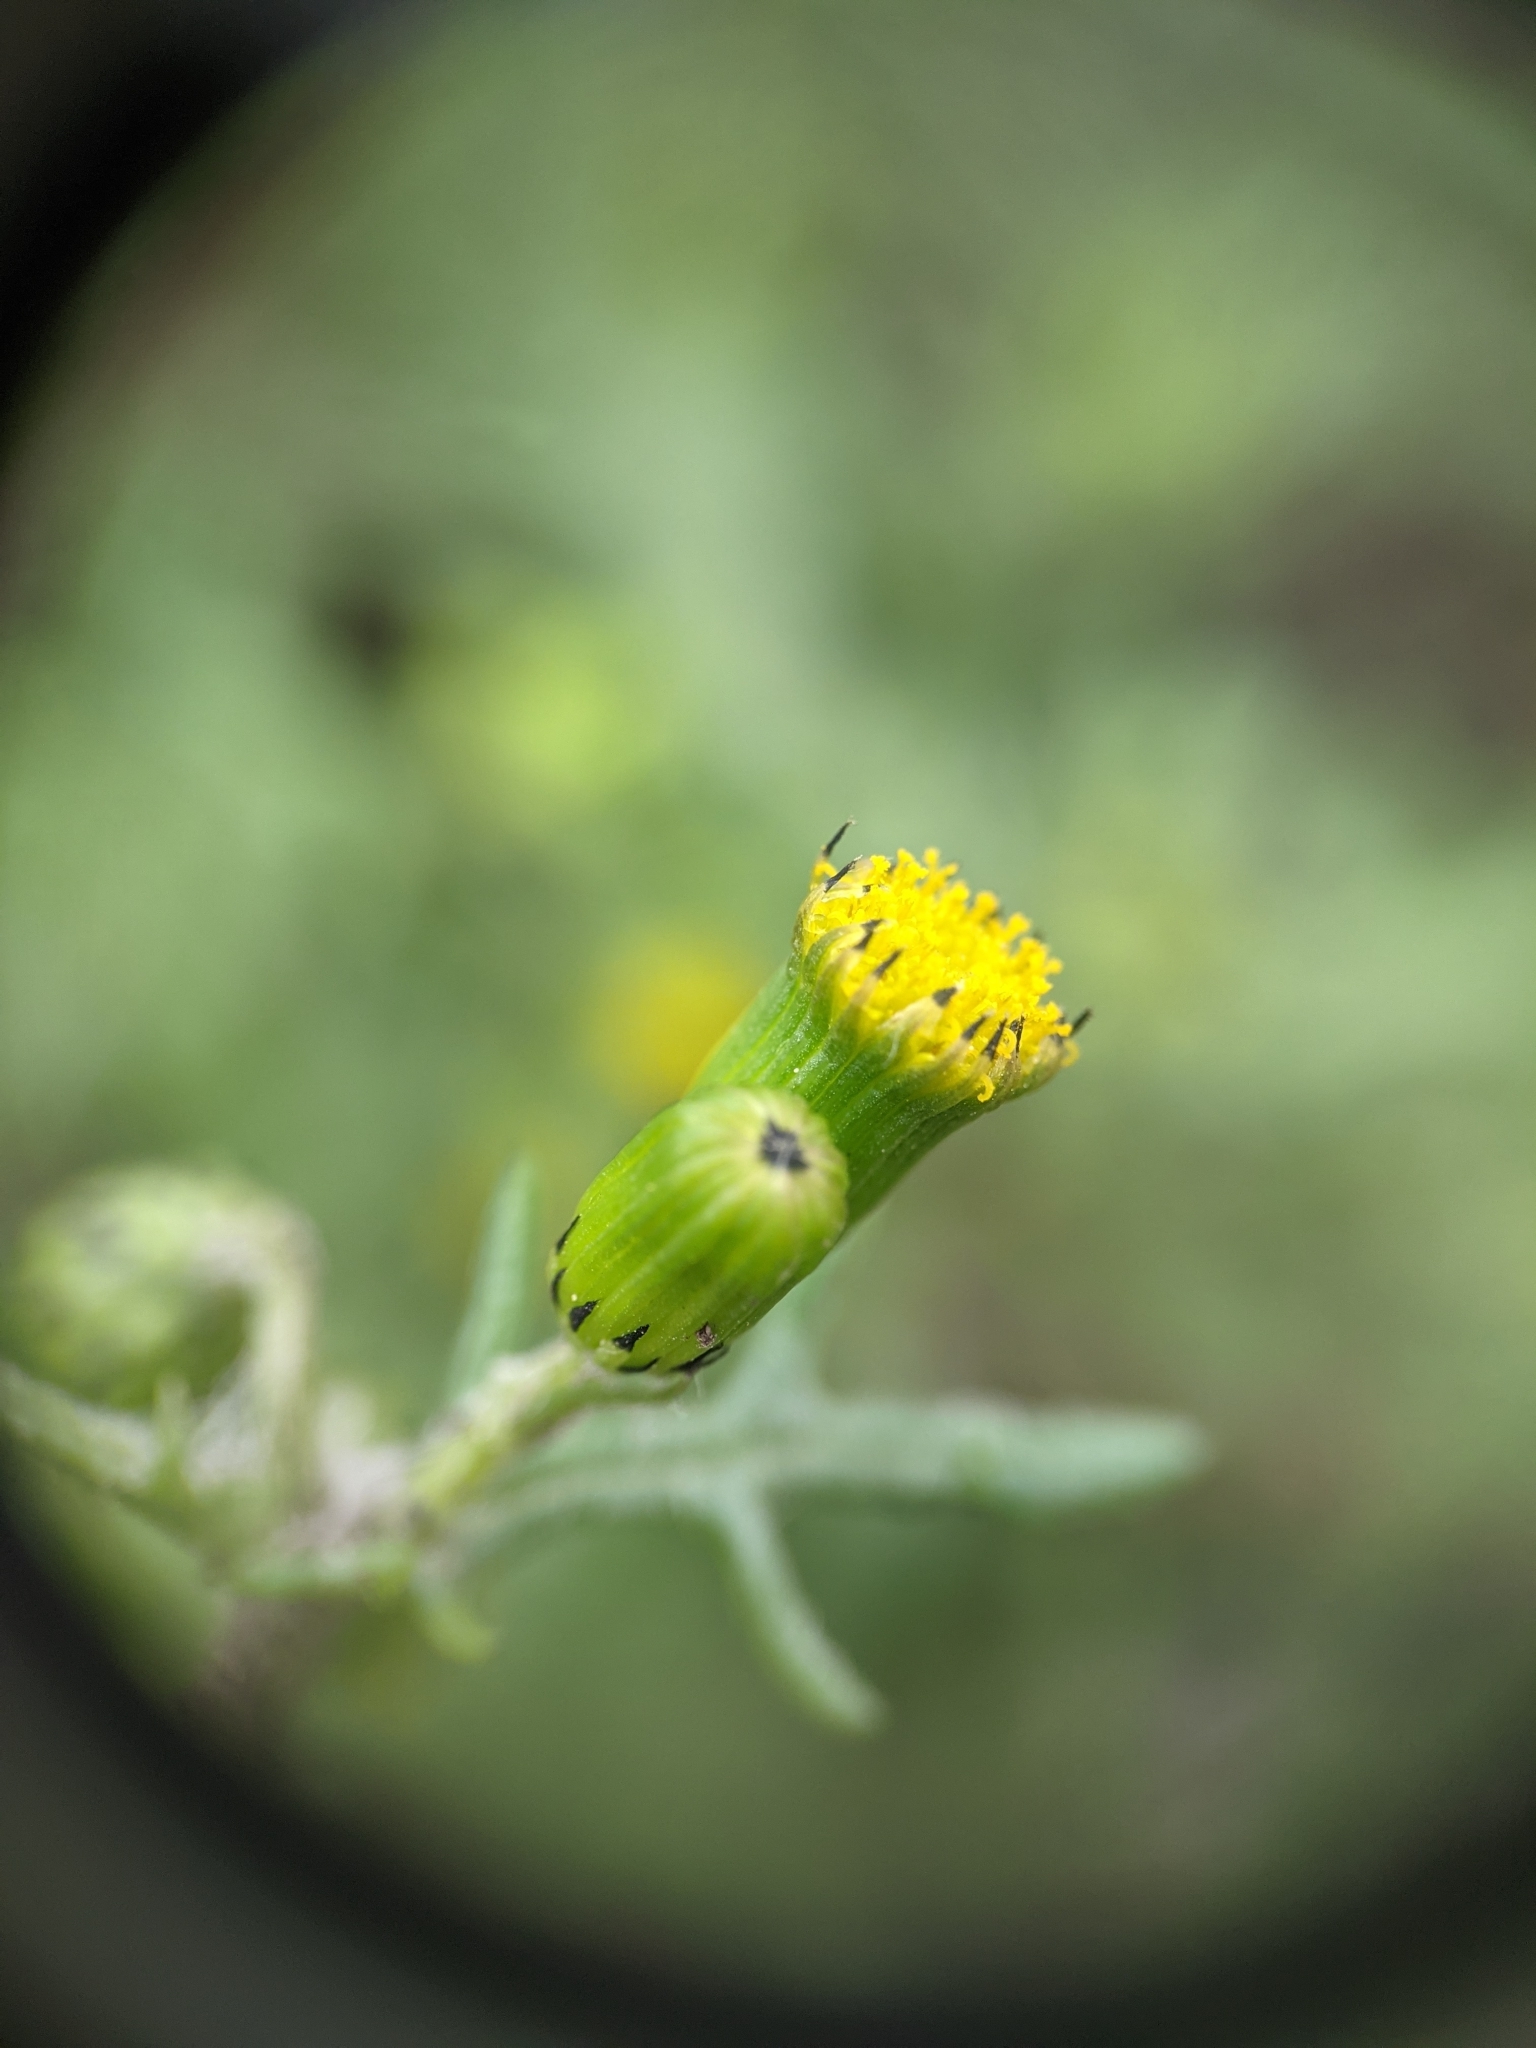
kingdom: Plantae
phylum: Tracheophyta
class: Magnoliopsida
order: Asterales
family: Asteraceae
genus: Senecio
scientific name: Senecio vulgaris
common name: Old-man-in-the-spring
